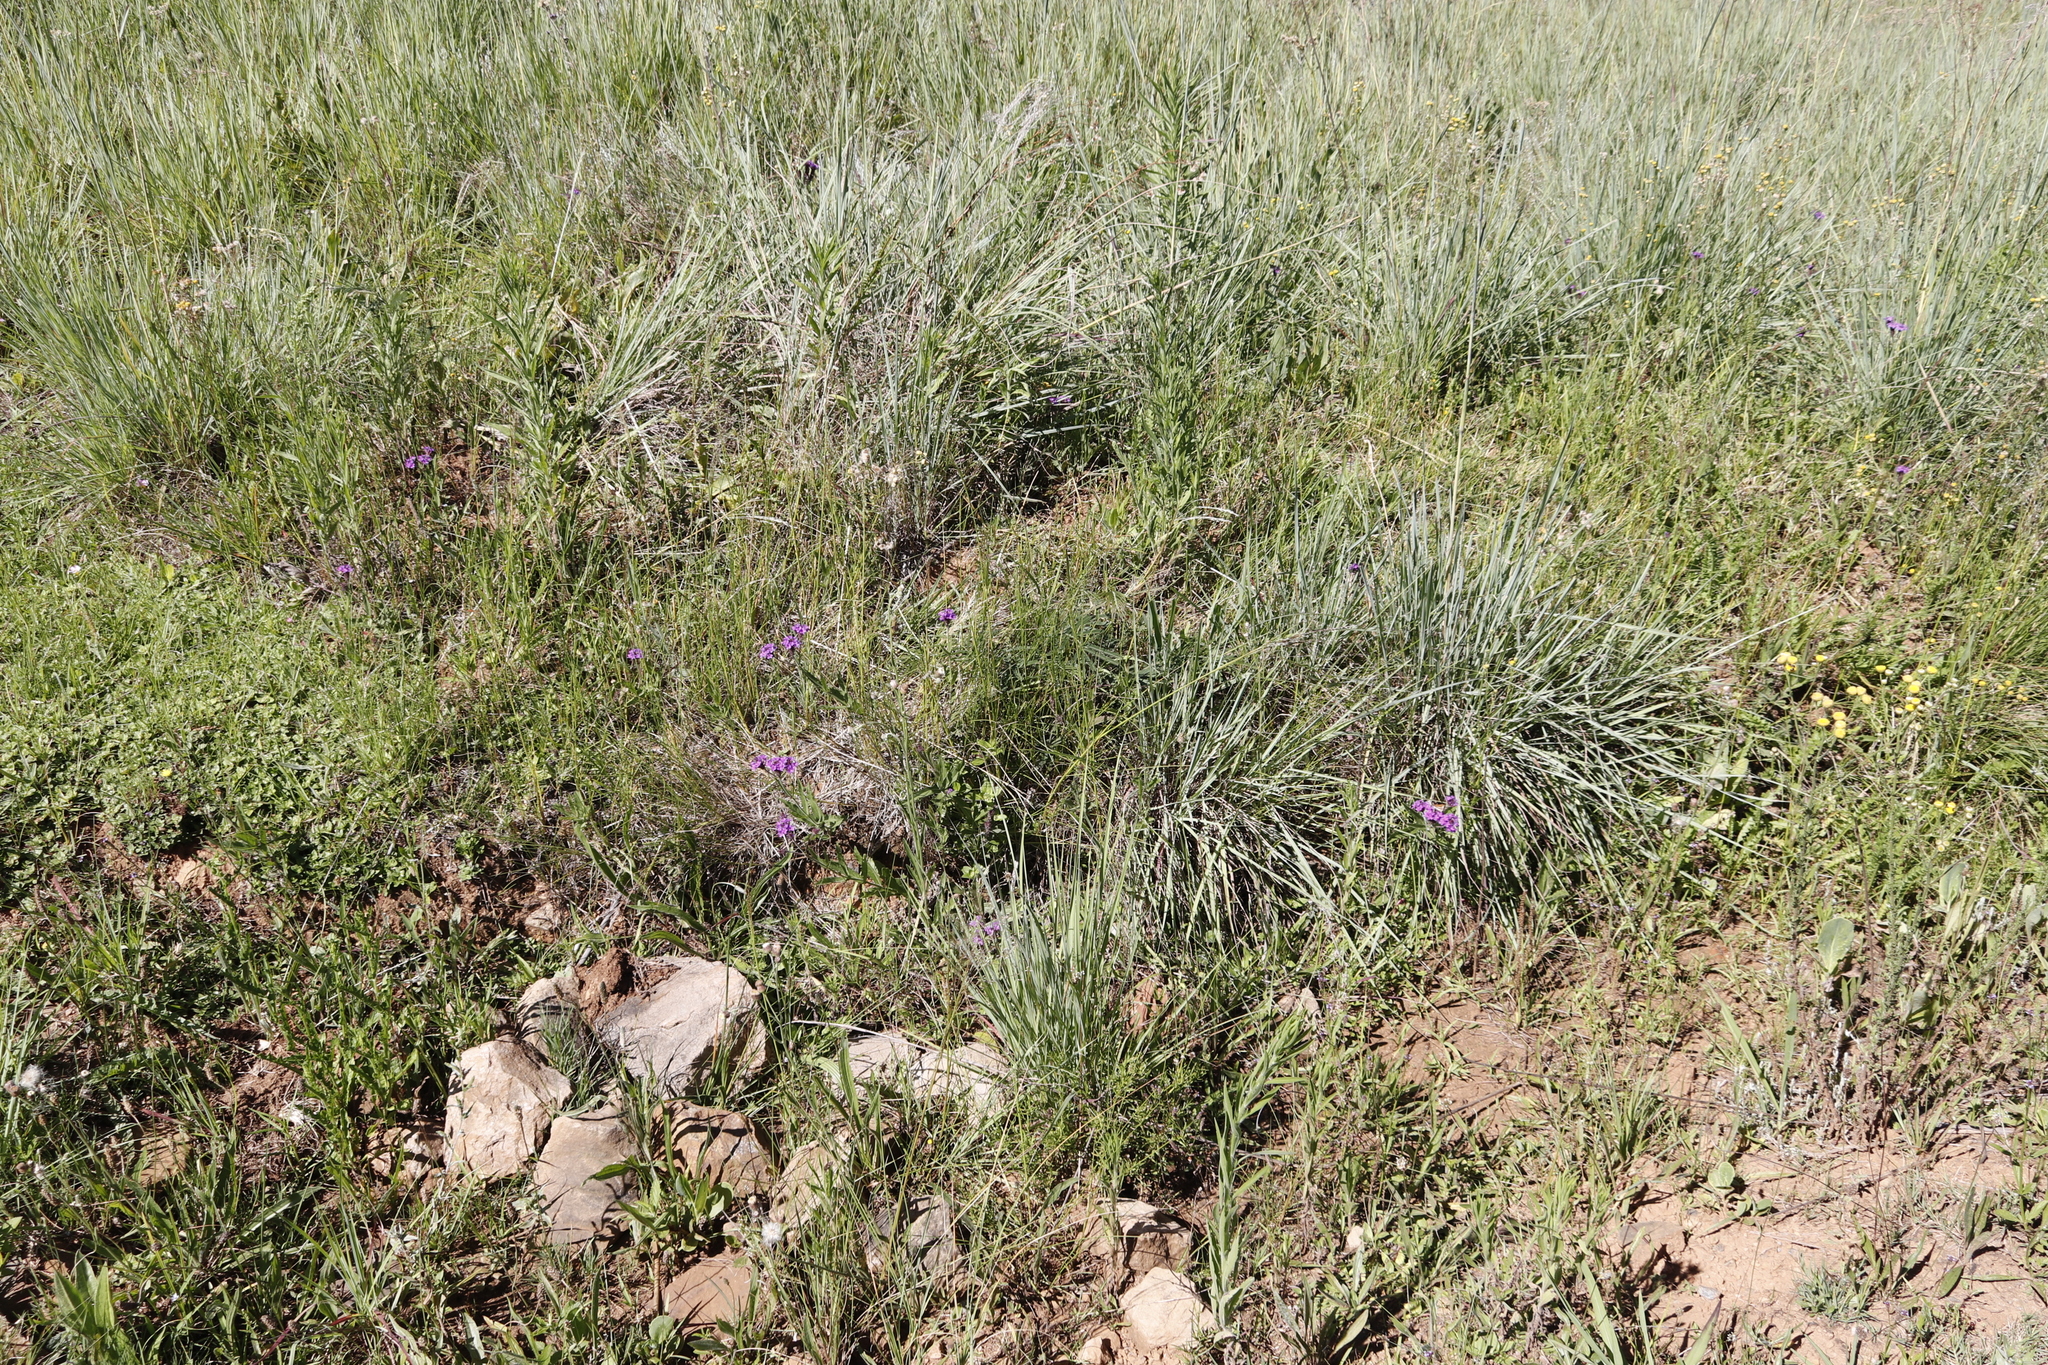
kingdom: Plantae
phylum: Tracheophyta
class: Magnoliopsida
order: Lamiales
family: Verbenaceae
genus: Verbena
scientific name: Verbena rigida
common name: Slender vervain
